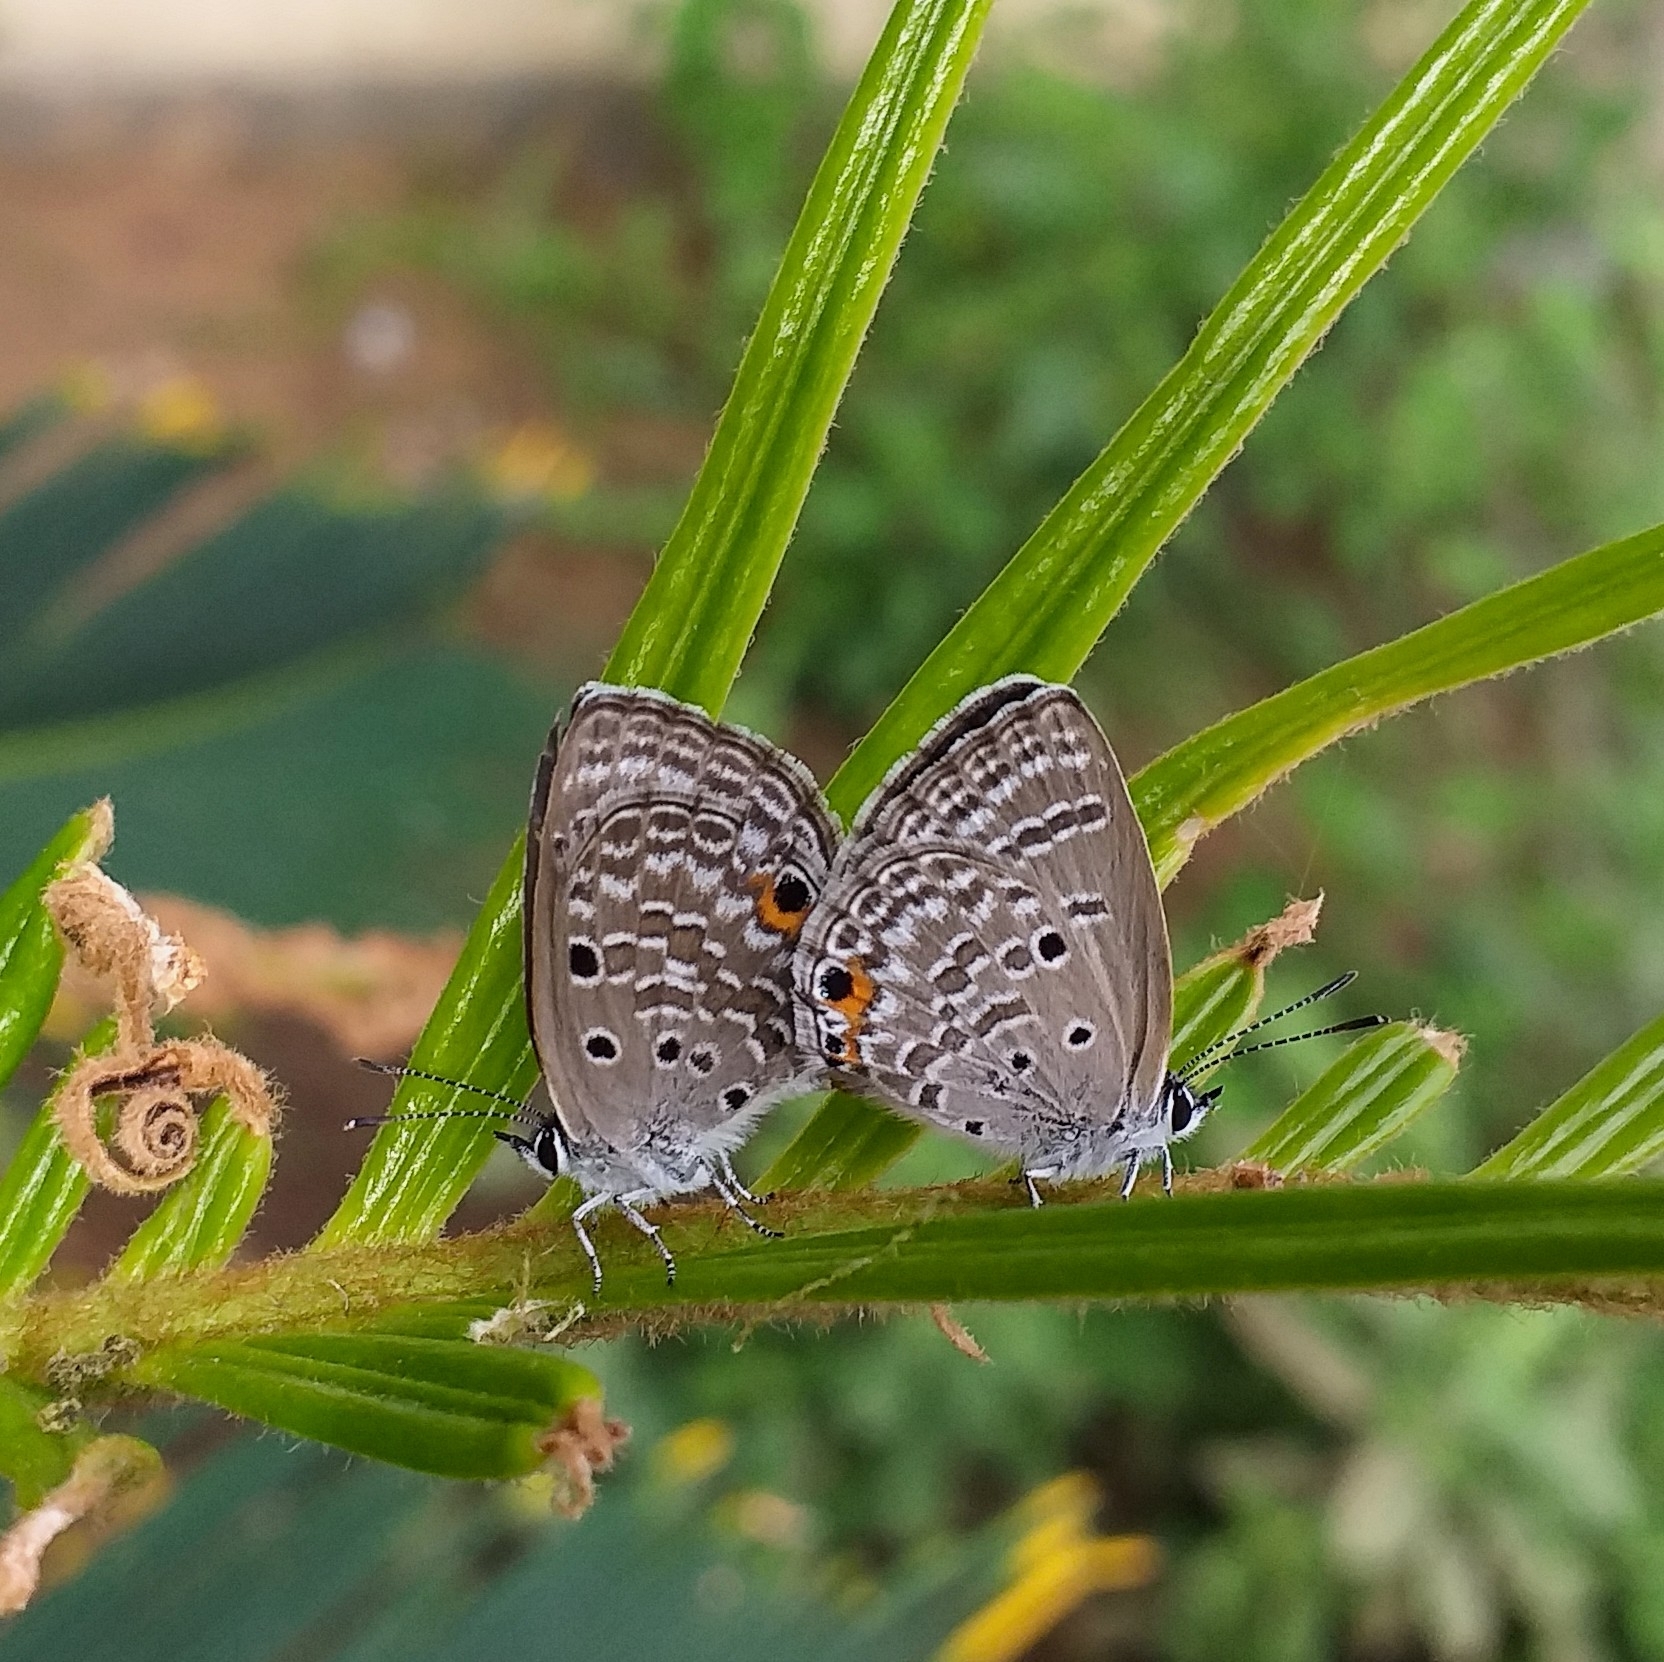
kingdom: Animalia
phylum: Arthropoda
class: Insecta
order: Lepidoptera
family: Lycaenidae
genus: Luthrodes
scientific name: Luthrodes pandava
